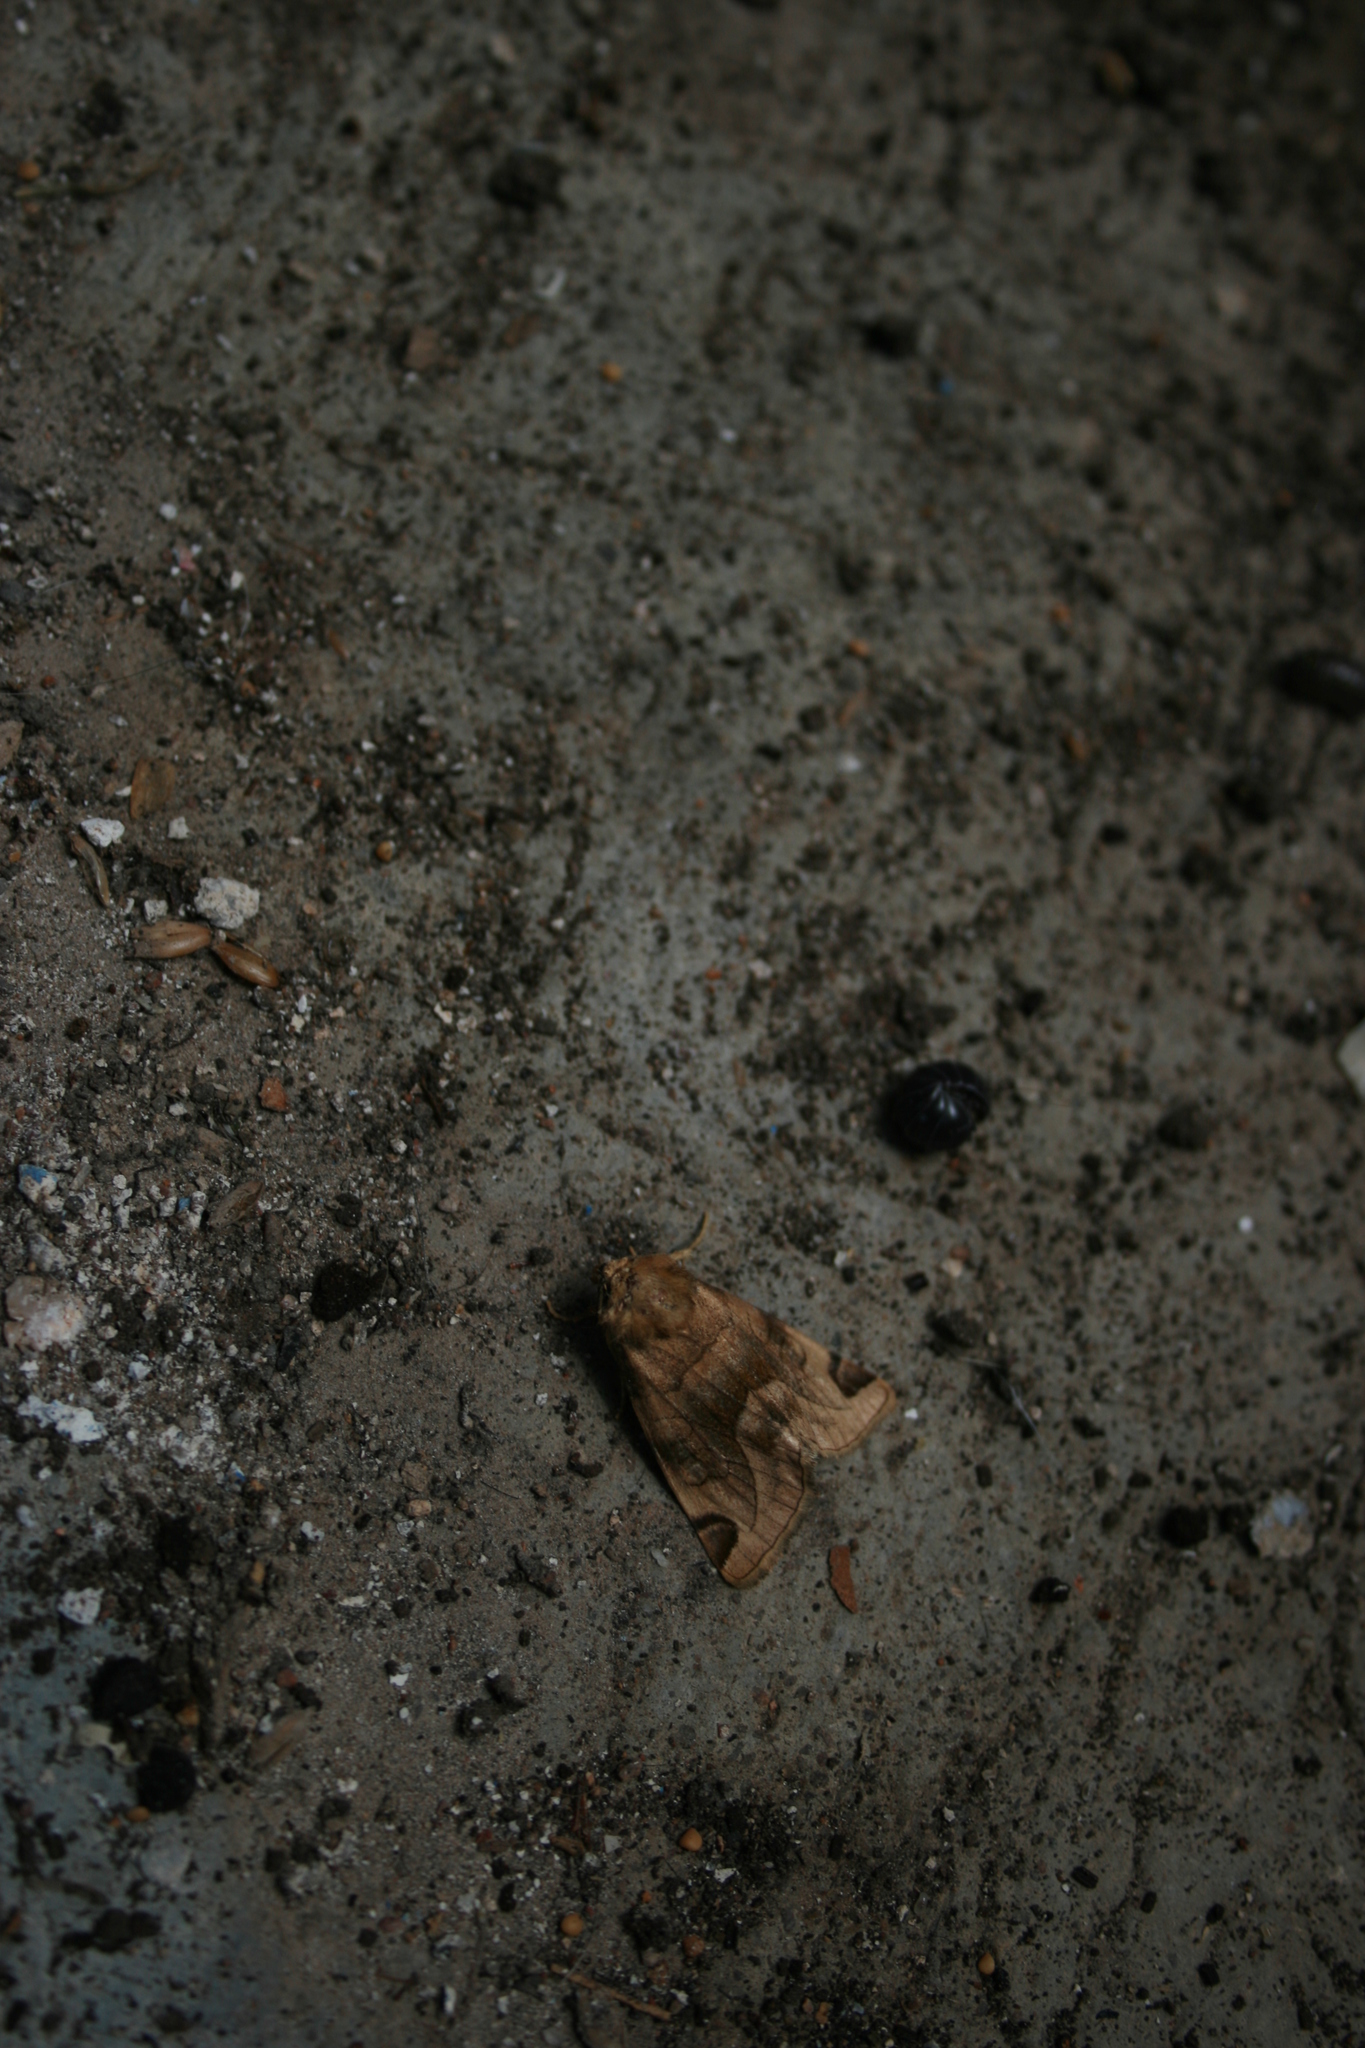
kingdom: Animalia
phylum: Arthropoda
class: Insecta
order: Lepidoptera
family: Noctuidae
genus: Plagiomimicus
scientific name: Plagiomimicus
